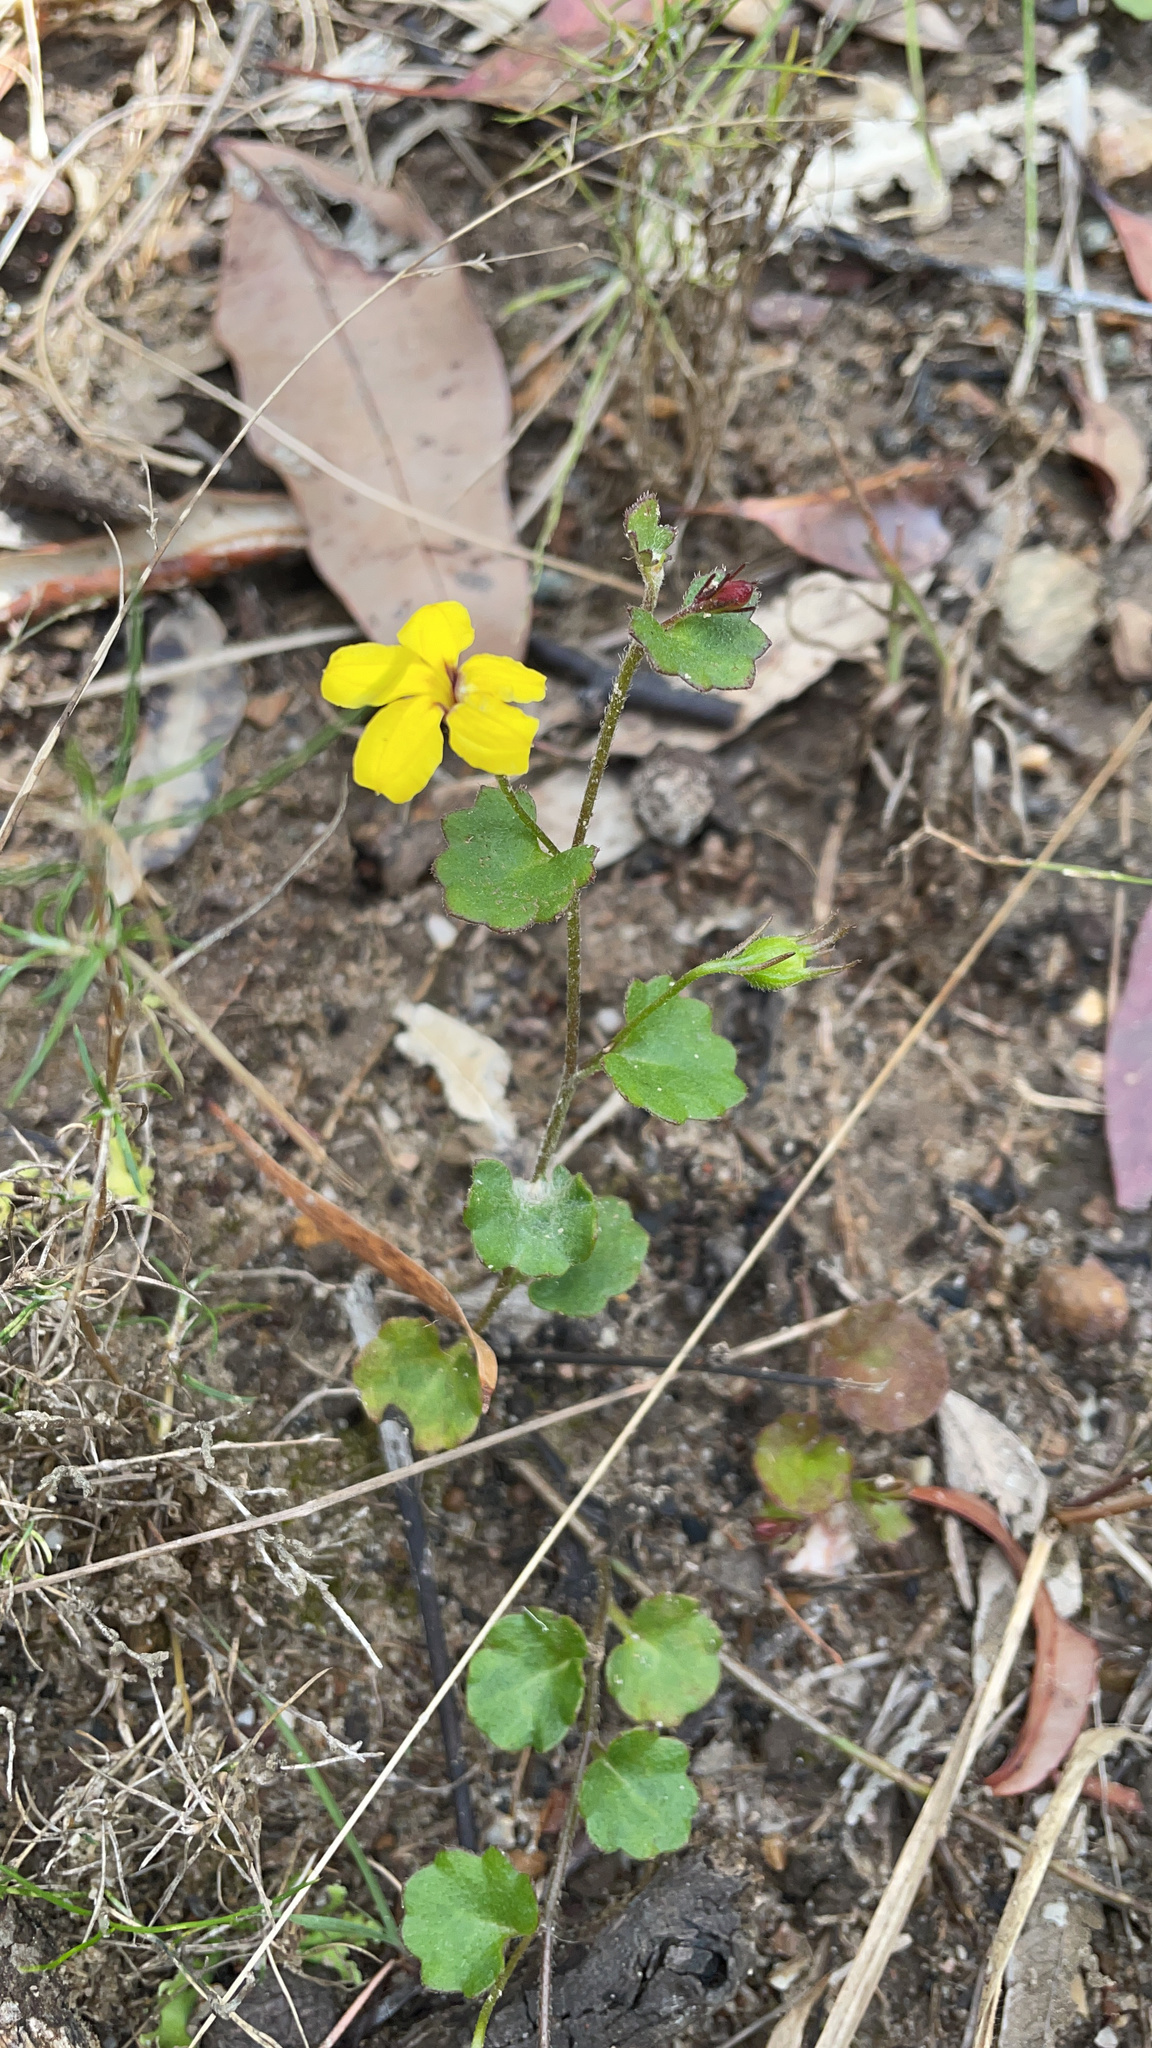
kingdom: Plantae
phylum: Tracheophyta
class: Magnoliopsida
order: Asterales
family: Goodeniaceae
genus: Goodenia
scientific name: Goodenia rotundifolia
